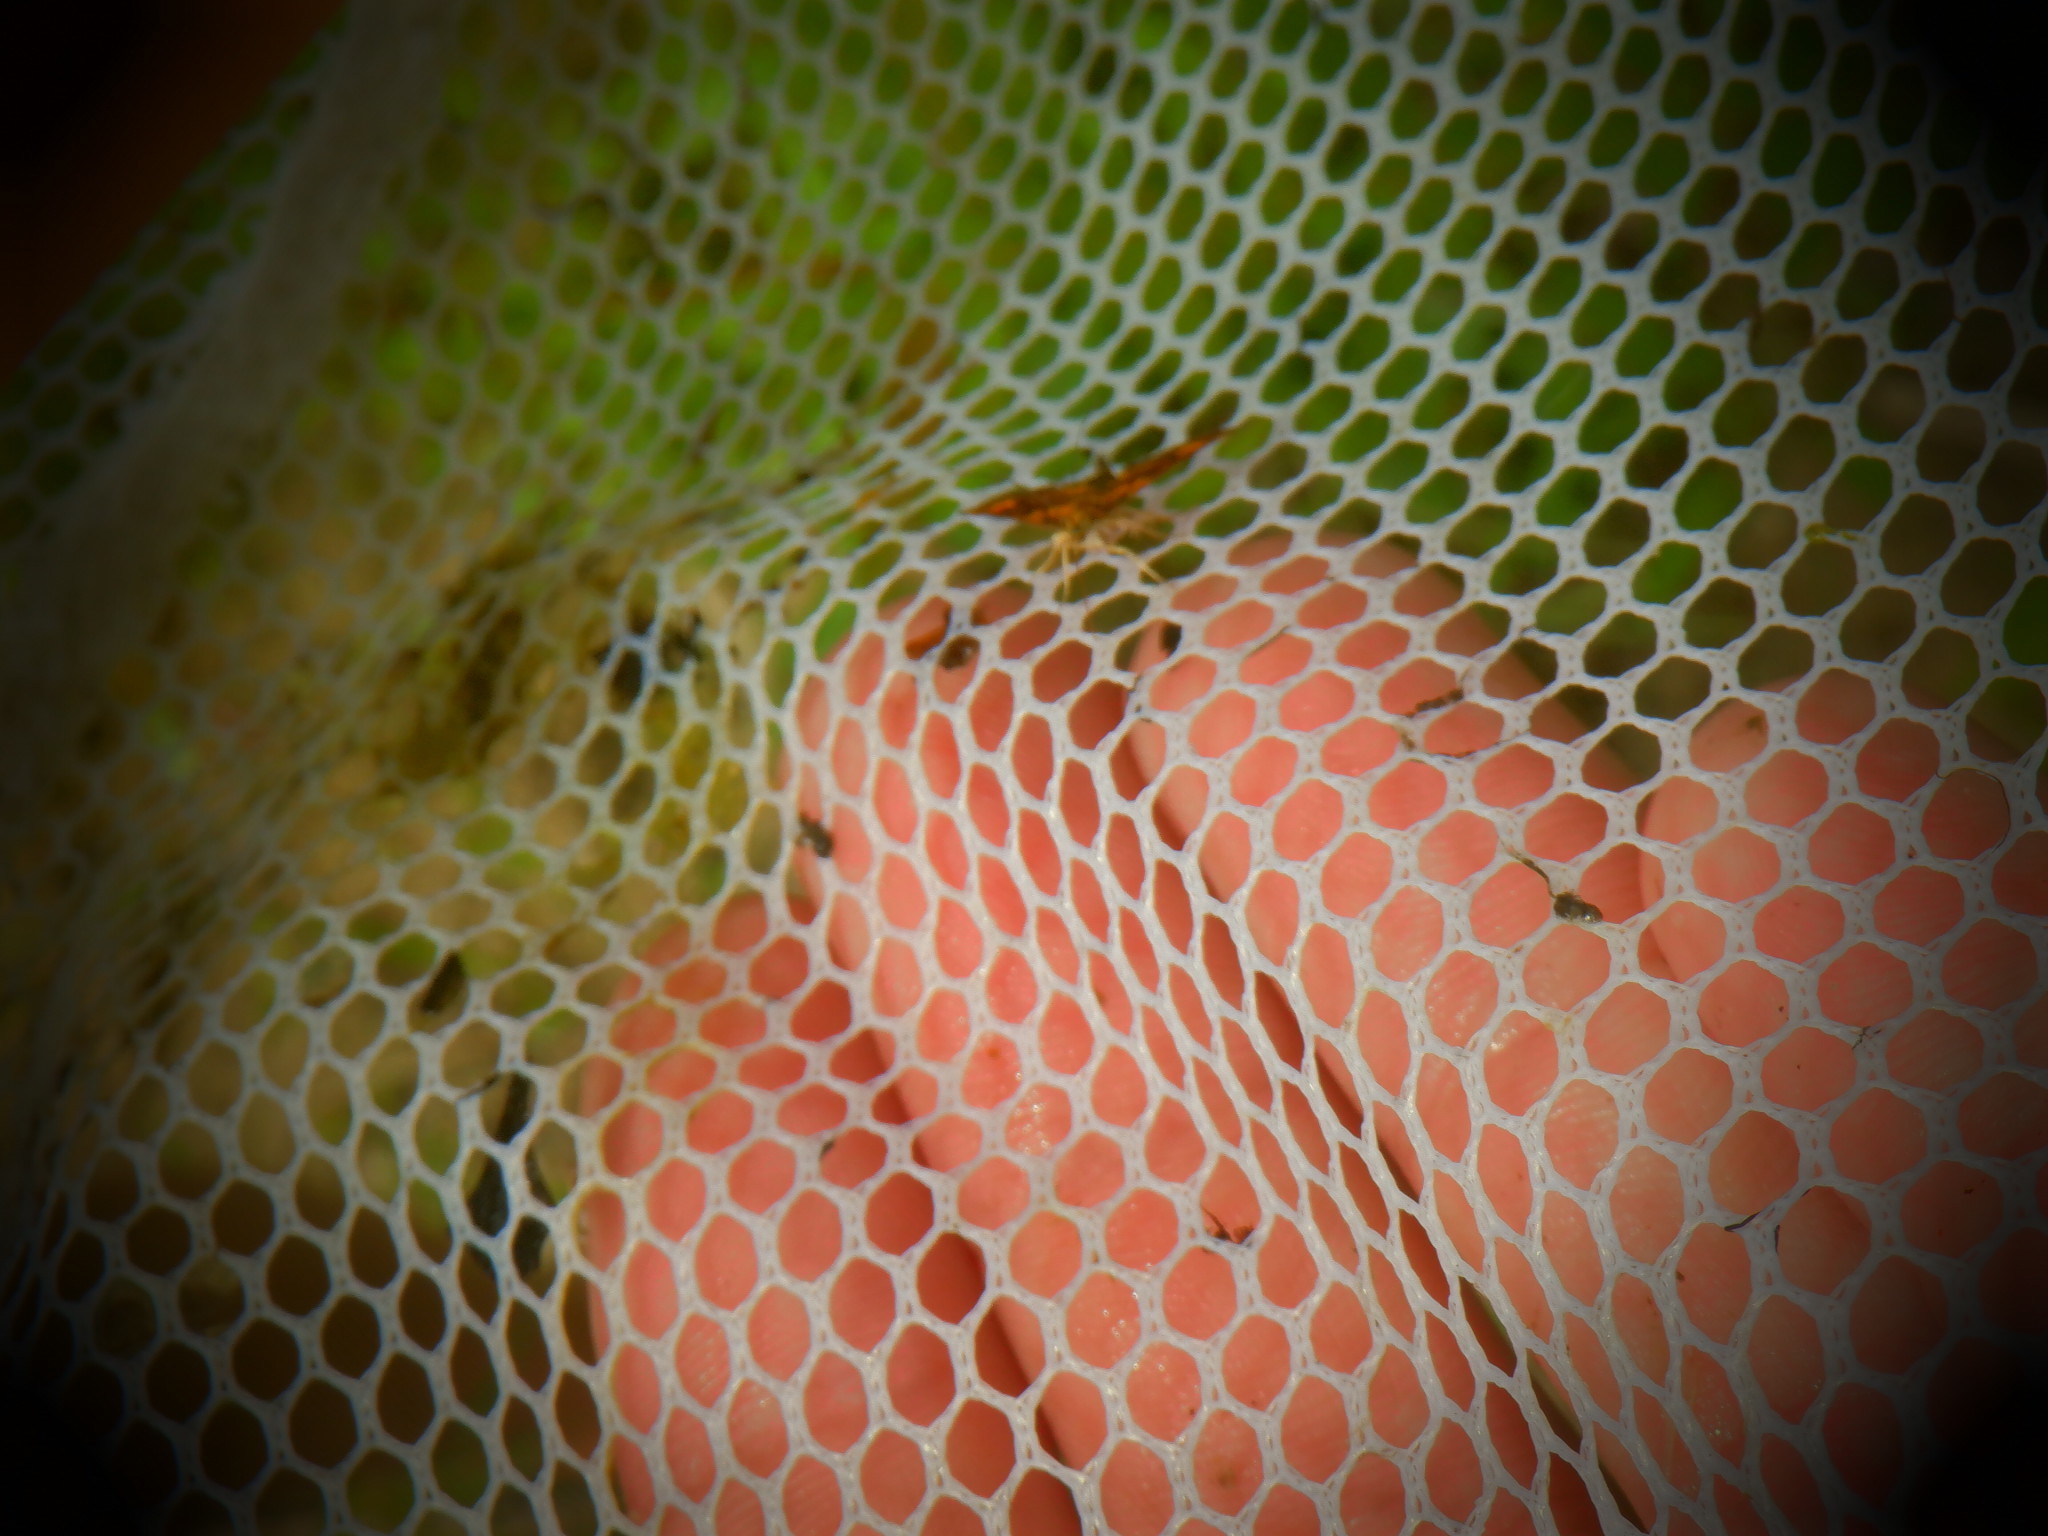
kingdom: Animalia
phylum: Arthropoda
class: Insecta
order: Lepidoptera
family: Crambidae
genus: Pyrausta
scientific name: Pyrausta orphisalis
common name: Orange mint moth
